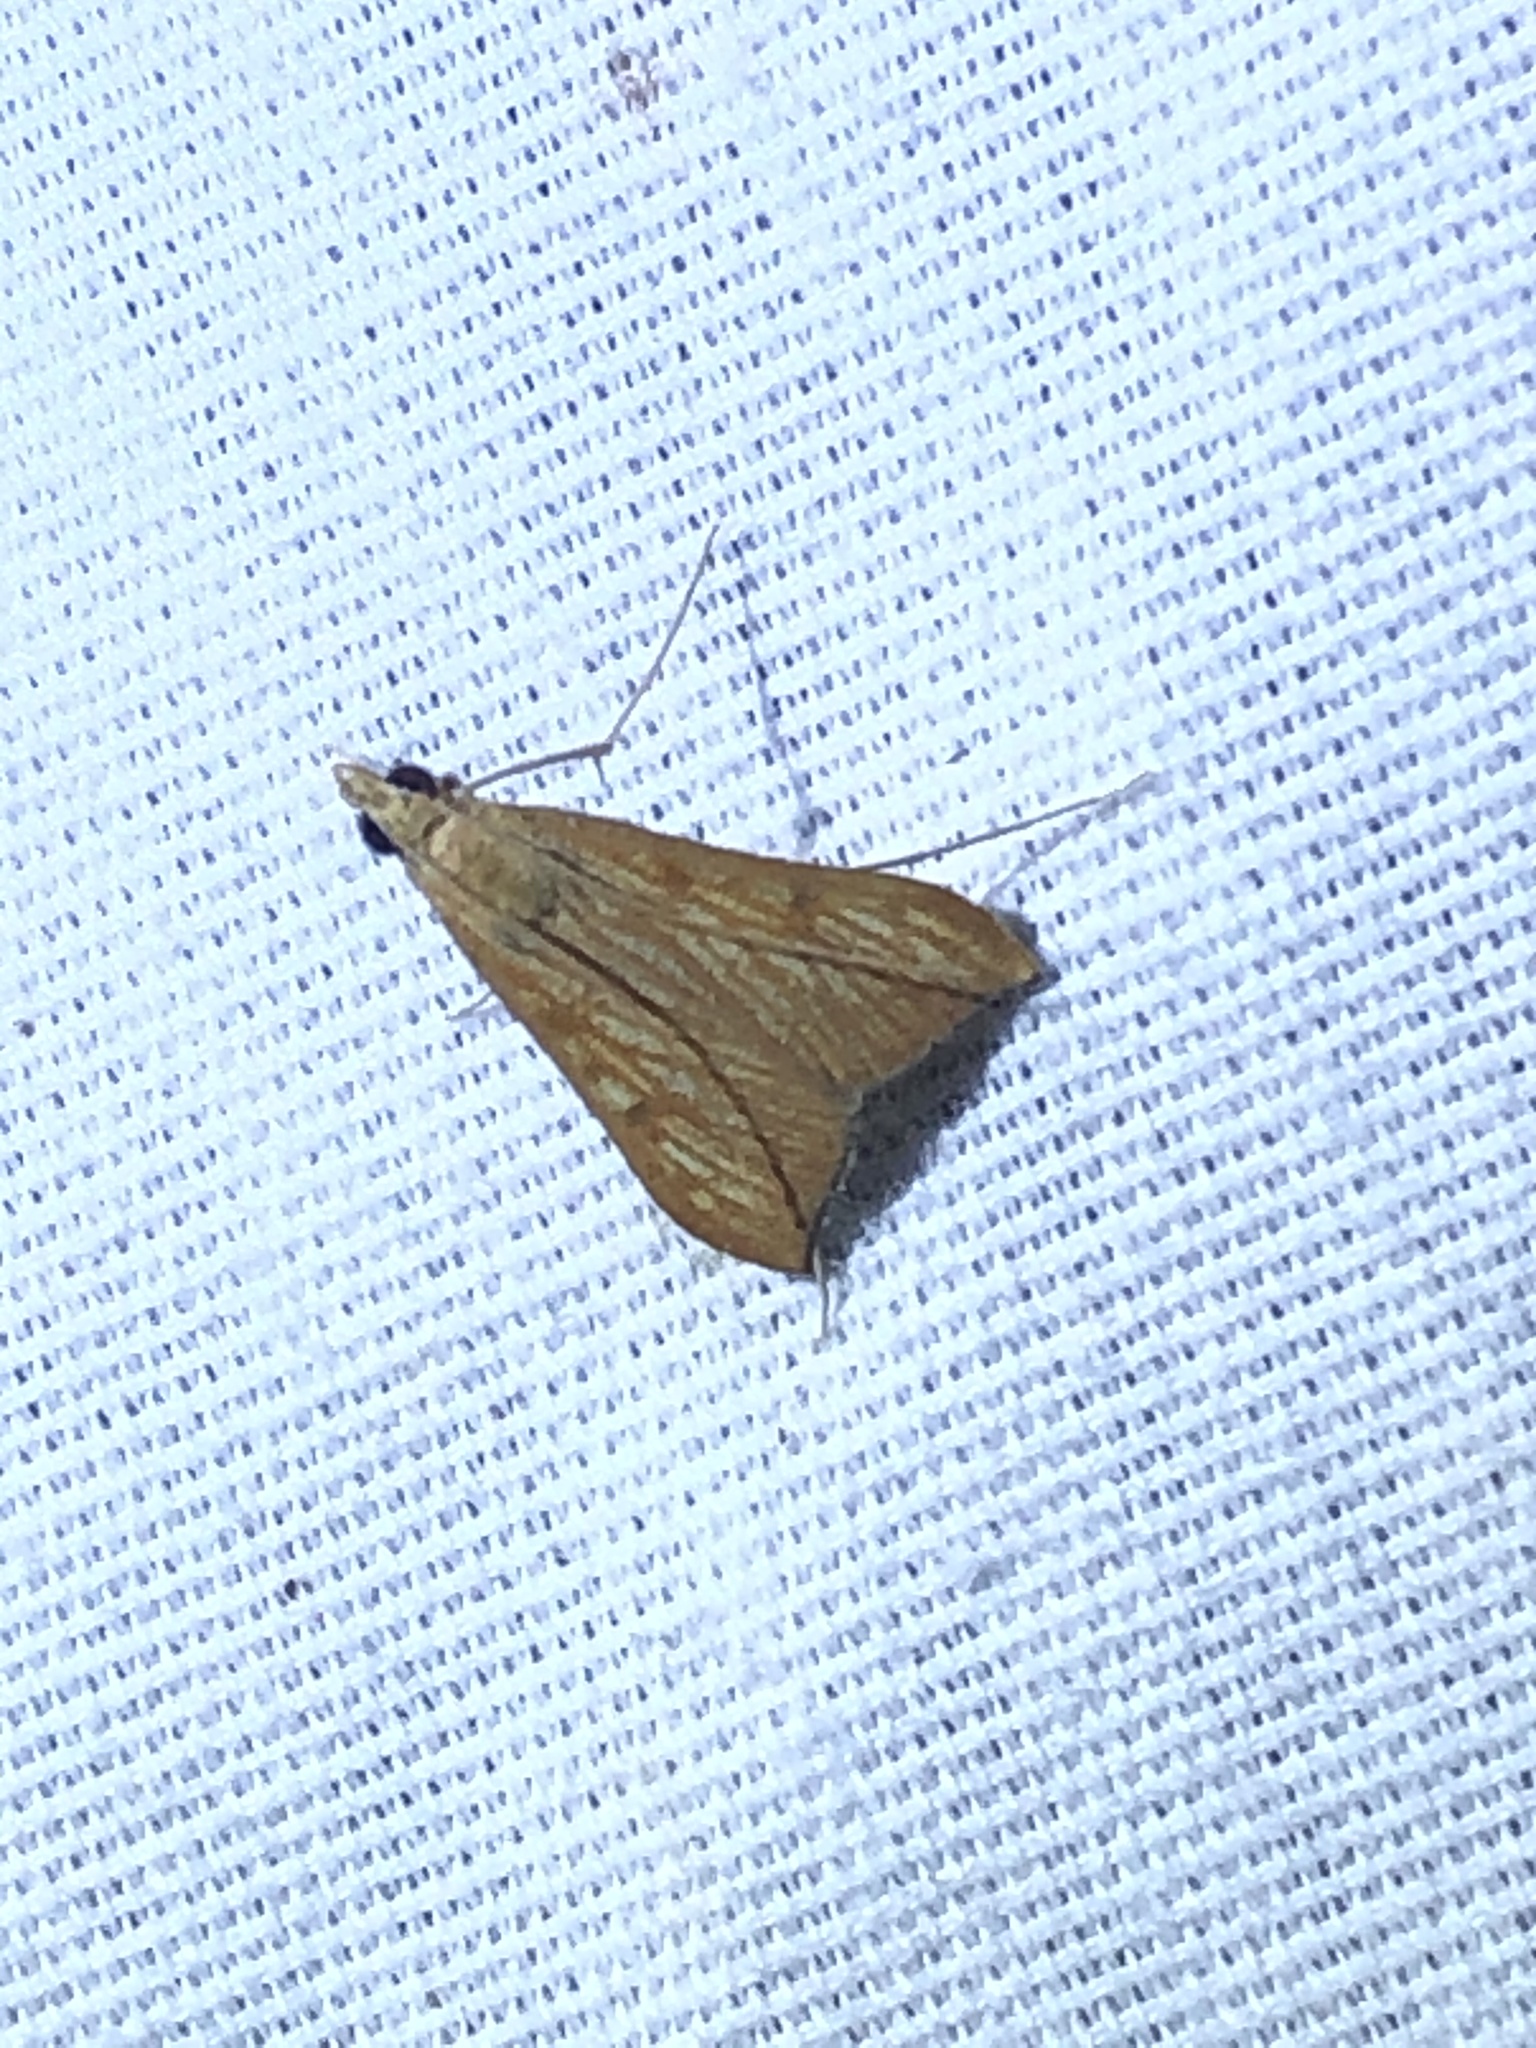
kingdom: Animalia
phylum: Arthropoda
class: Insecta
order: Lepidoptera
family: Crambidae
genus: Antigastra
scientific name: Antigastra catalaunalis
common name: Spanish dot
